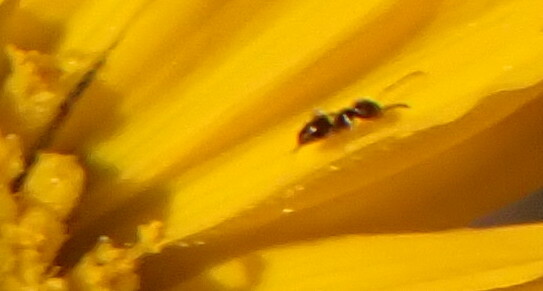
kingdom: Animalia
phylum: Arthropoda
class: Insecta
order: Hymenoptera
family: Formicidae
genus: Brachymyrmex
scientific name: Brachymyrmex patagonicus
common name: Dark rover ant
